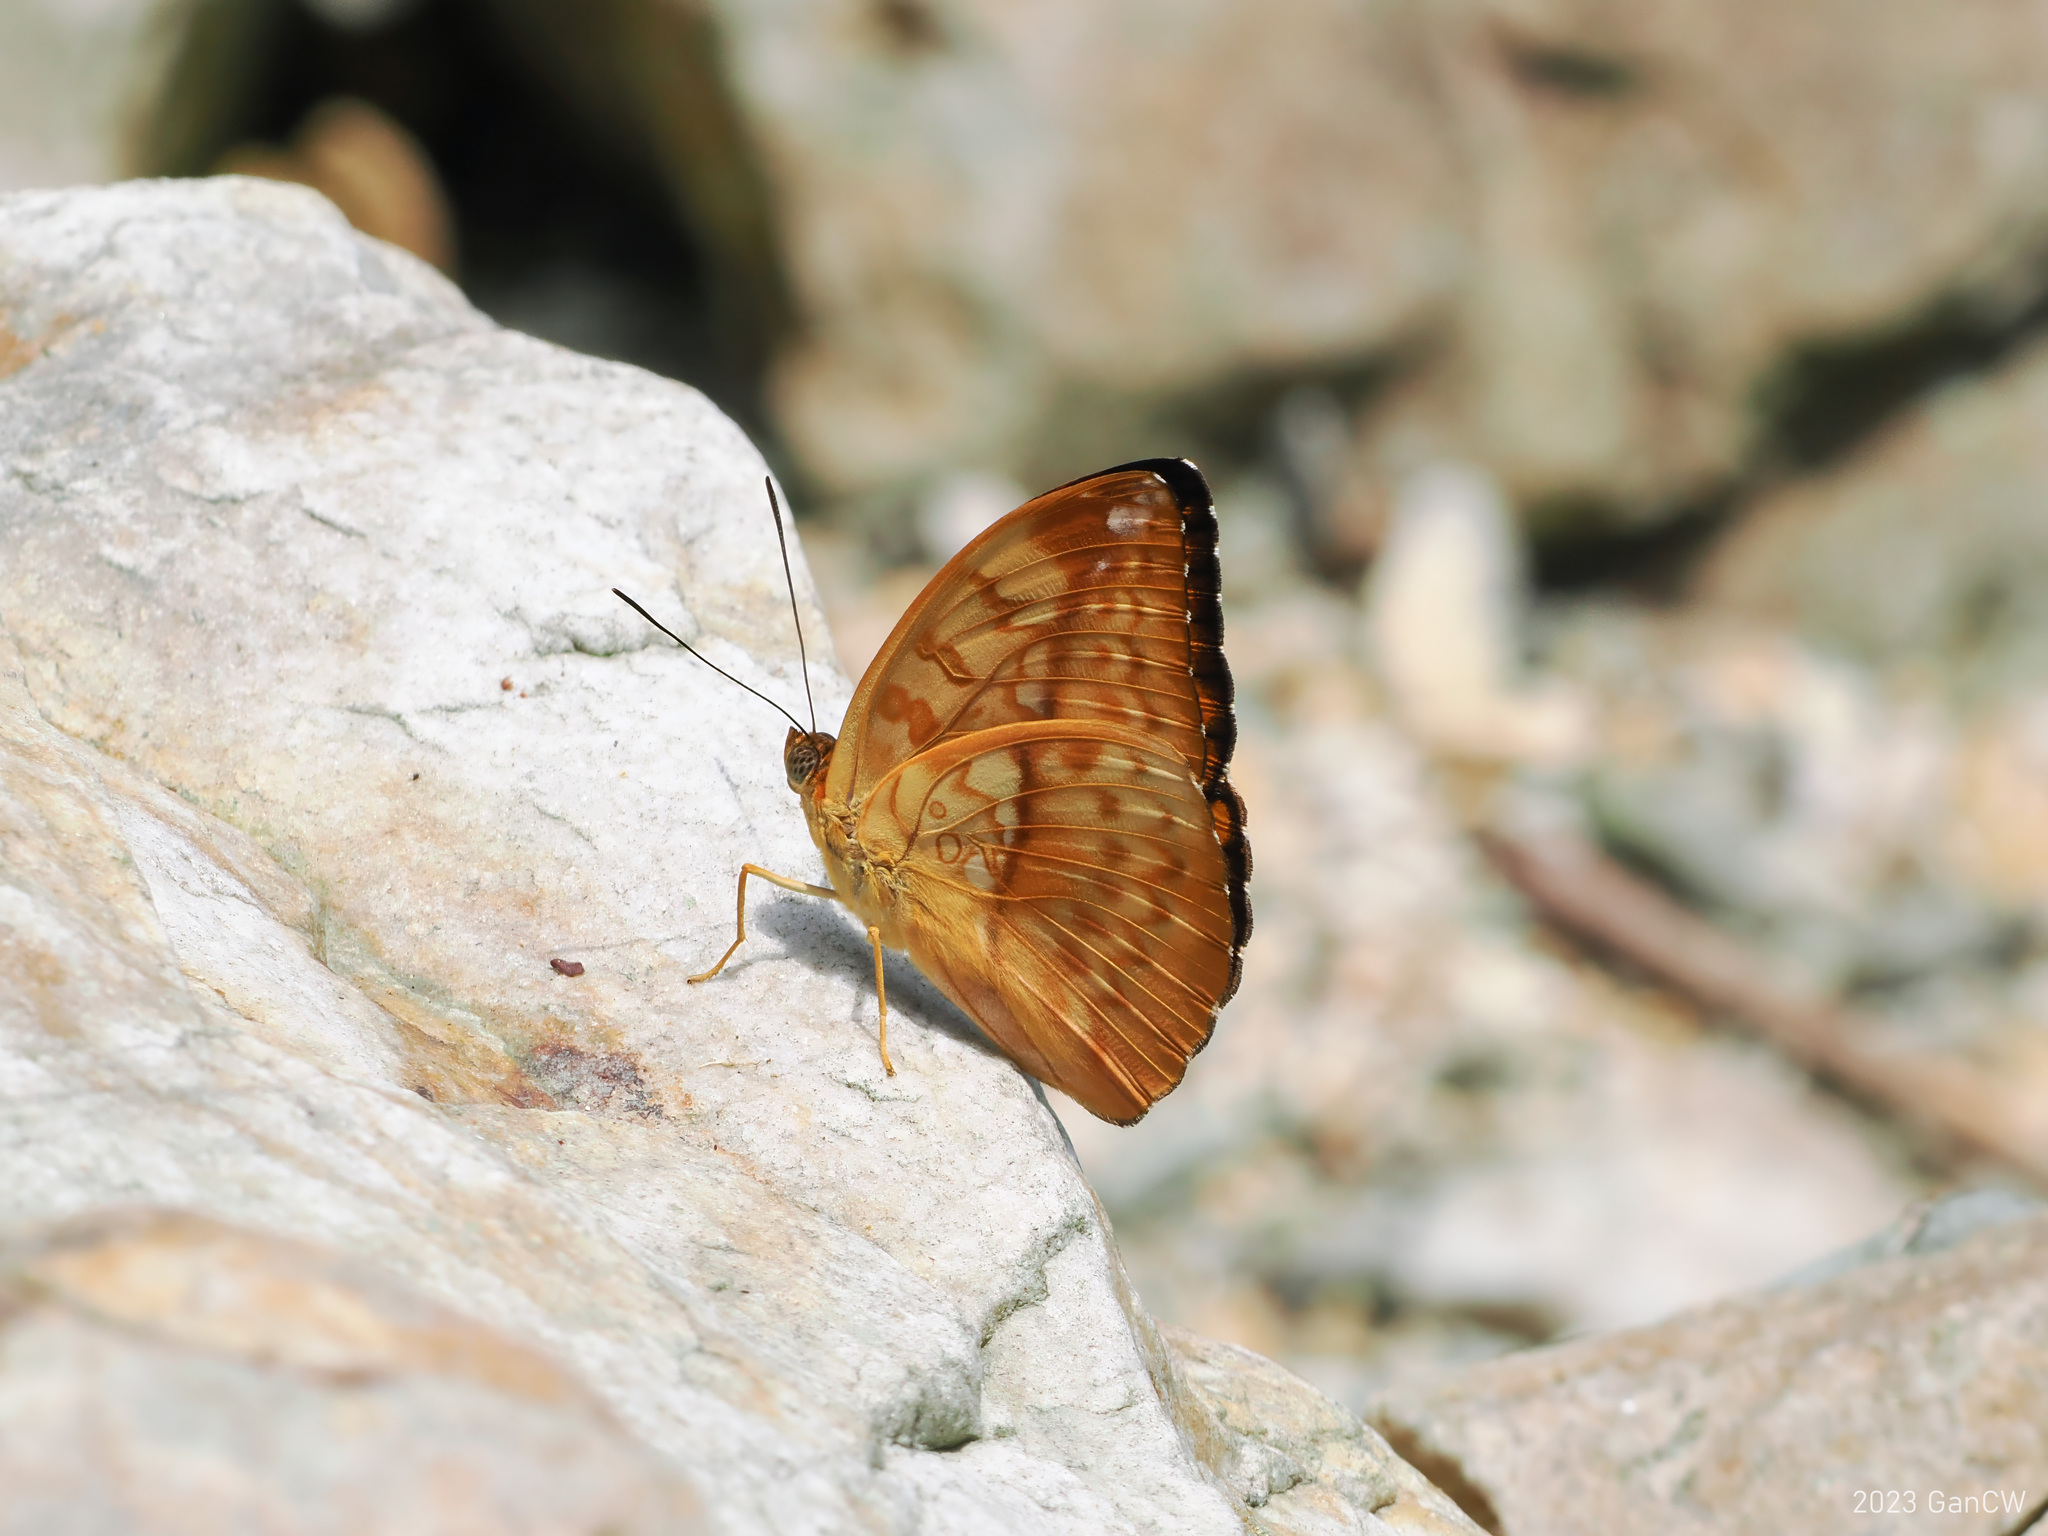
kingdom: Animalia
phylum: Arthropoda
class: Insecta
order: Lepidoptera
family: Nymphalidae
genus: Abrota
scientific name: Abrota ganga
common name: Sergeant-major
